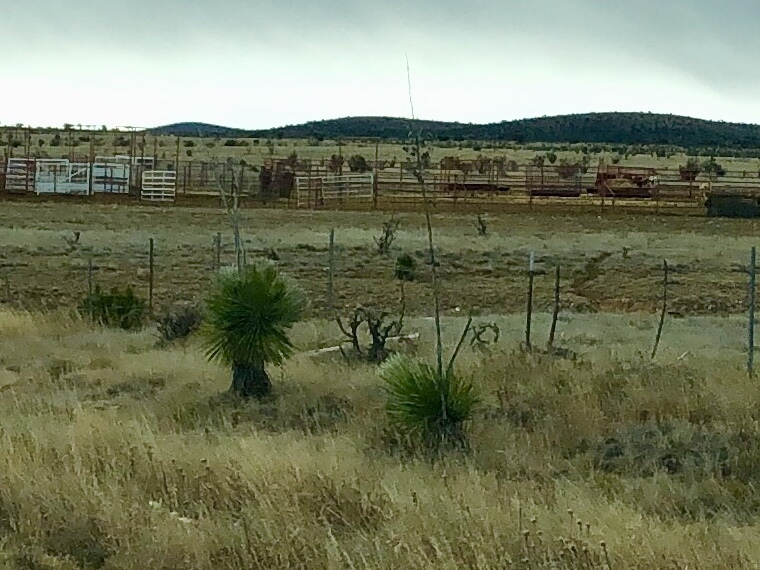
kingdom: Plantae
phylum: Tracheophyta
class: Liliopsida
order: Asparagales
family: Asparagaceae
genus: Yucca
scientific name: Yucca elata
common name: Palmella
